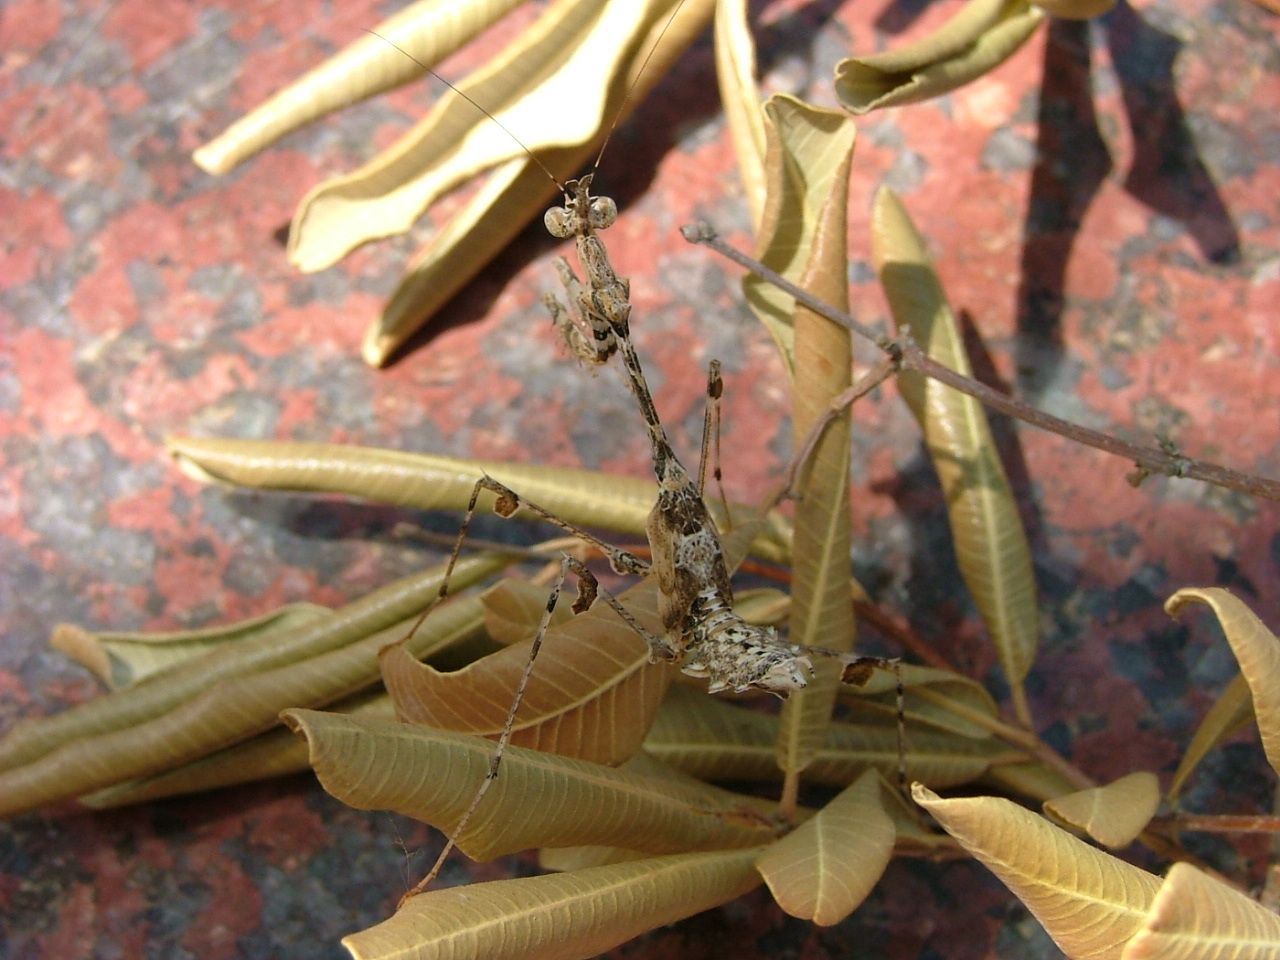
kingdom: Animalia
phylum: Arthropoda
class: Insecta
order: Mantodea
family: Hymenopodidae
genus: Sibylla
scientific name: Sibylla pretiosa
